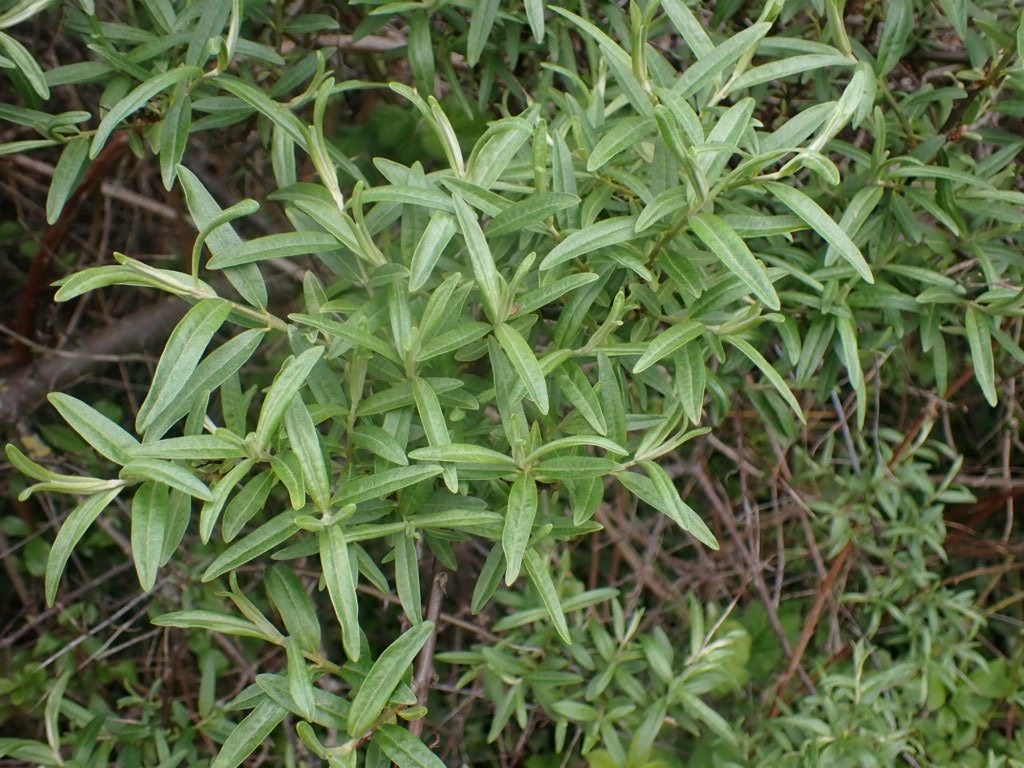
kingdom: Plantae
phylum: Tracheophyta
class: Magnoliopsida
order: Rosales
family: Elaeagnaceae
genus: Hippophae
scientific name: Hippophae rhamnoides
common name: Sea-buckthorn
